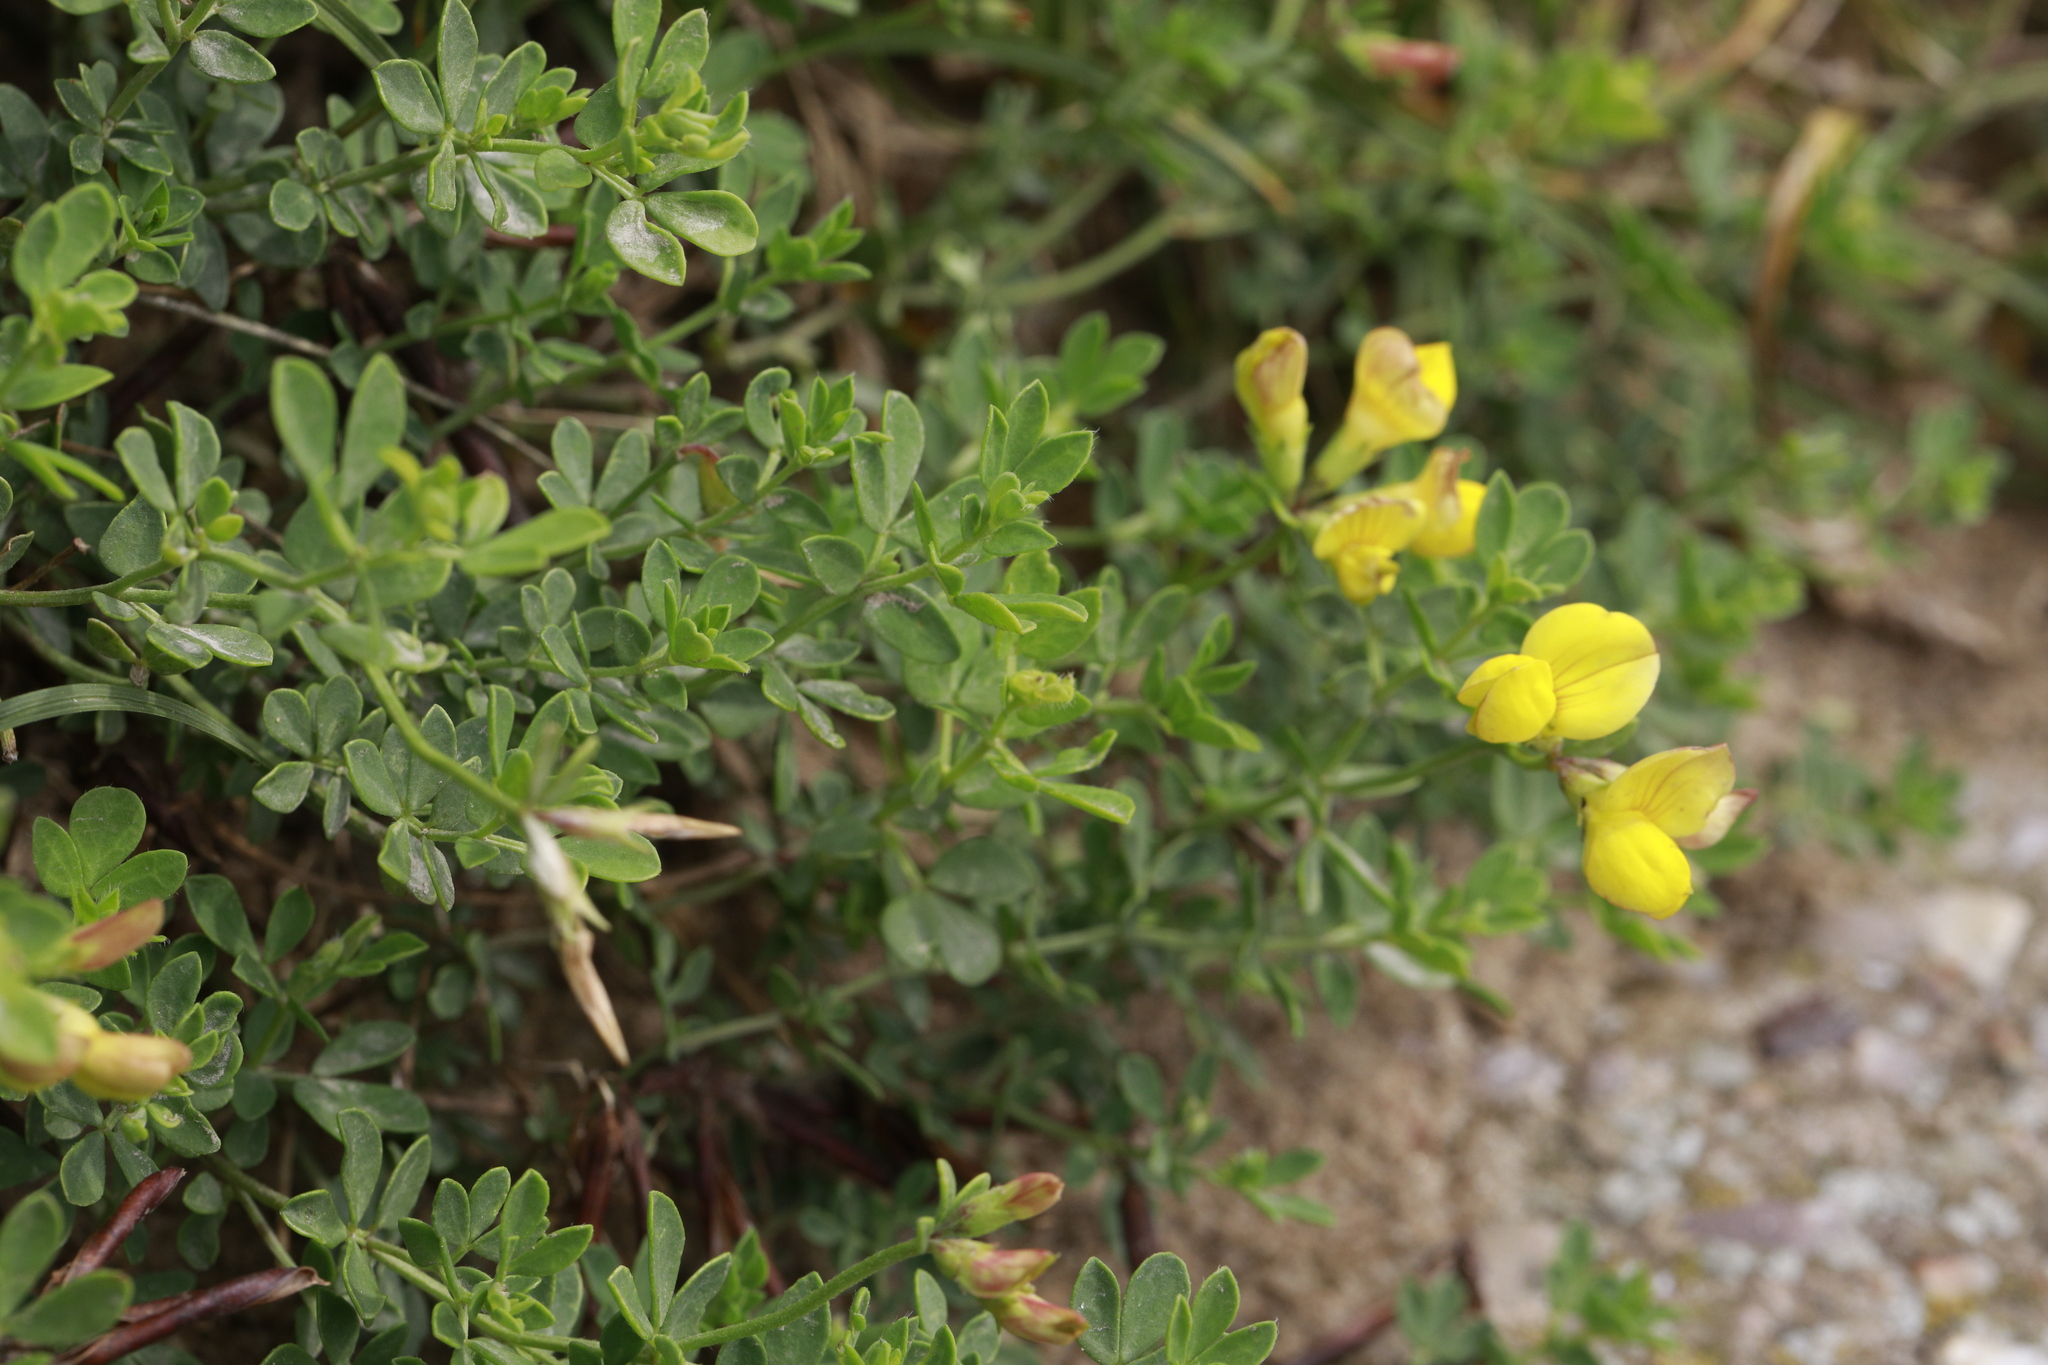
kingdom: Plantae
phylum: Tracheophyta
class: Magnoliopsida
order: Fabales
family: Fabaceae
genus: Lotus
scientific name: Lotus corniculatus
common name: Common bird's-foot-trefoil
